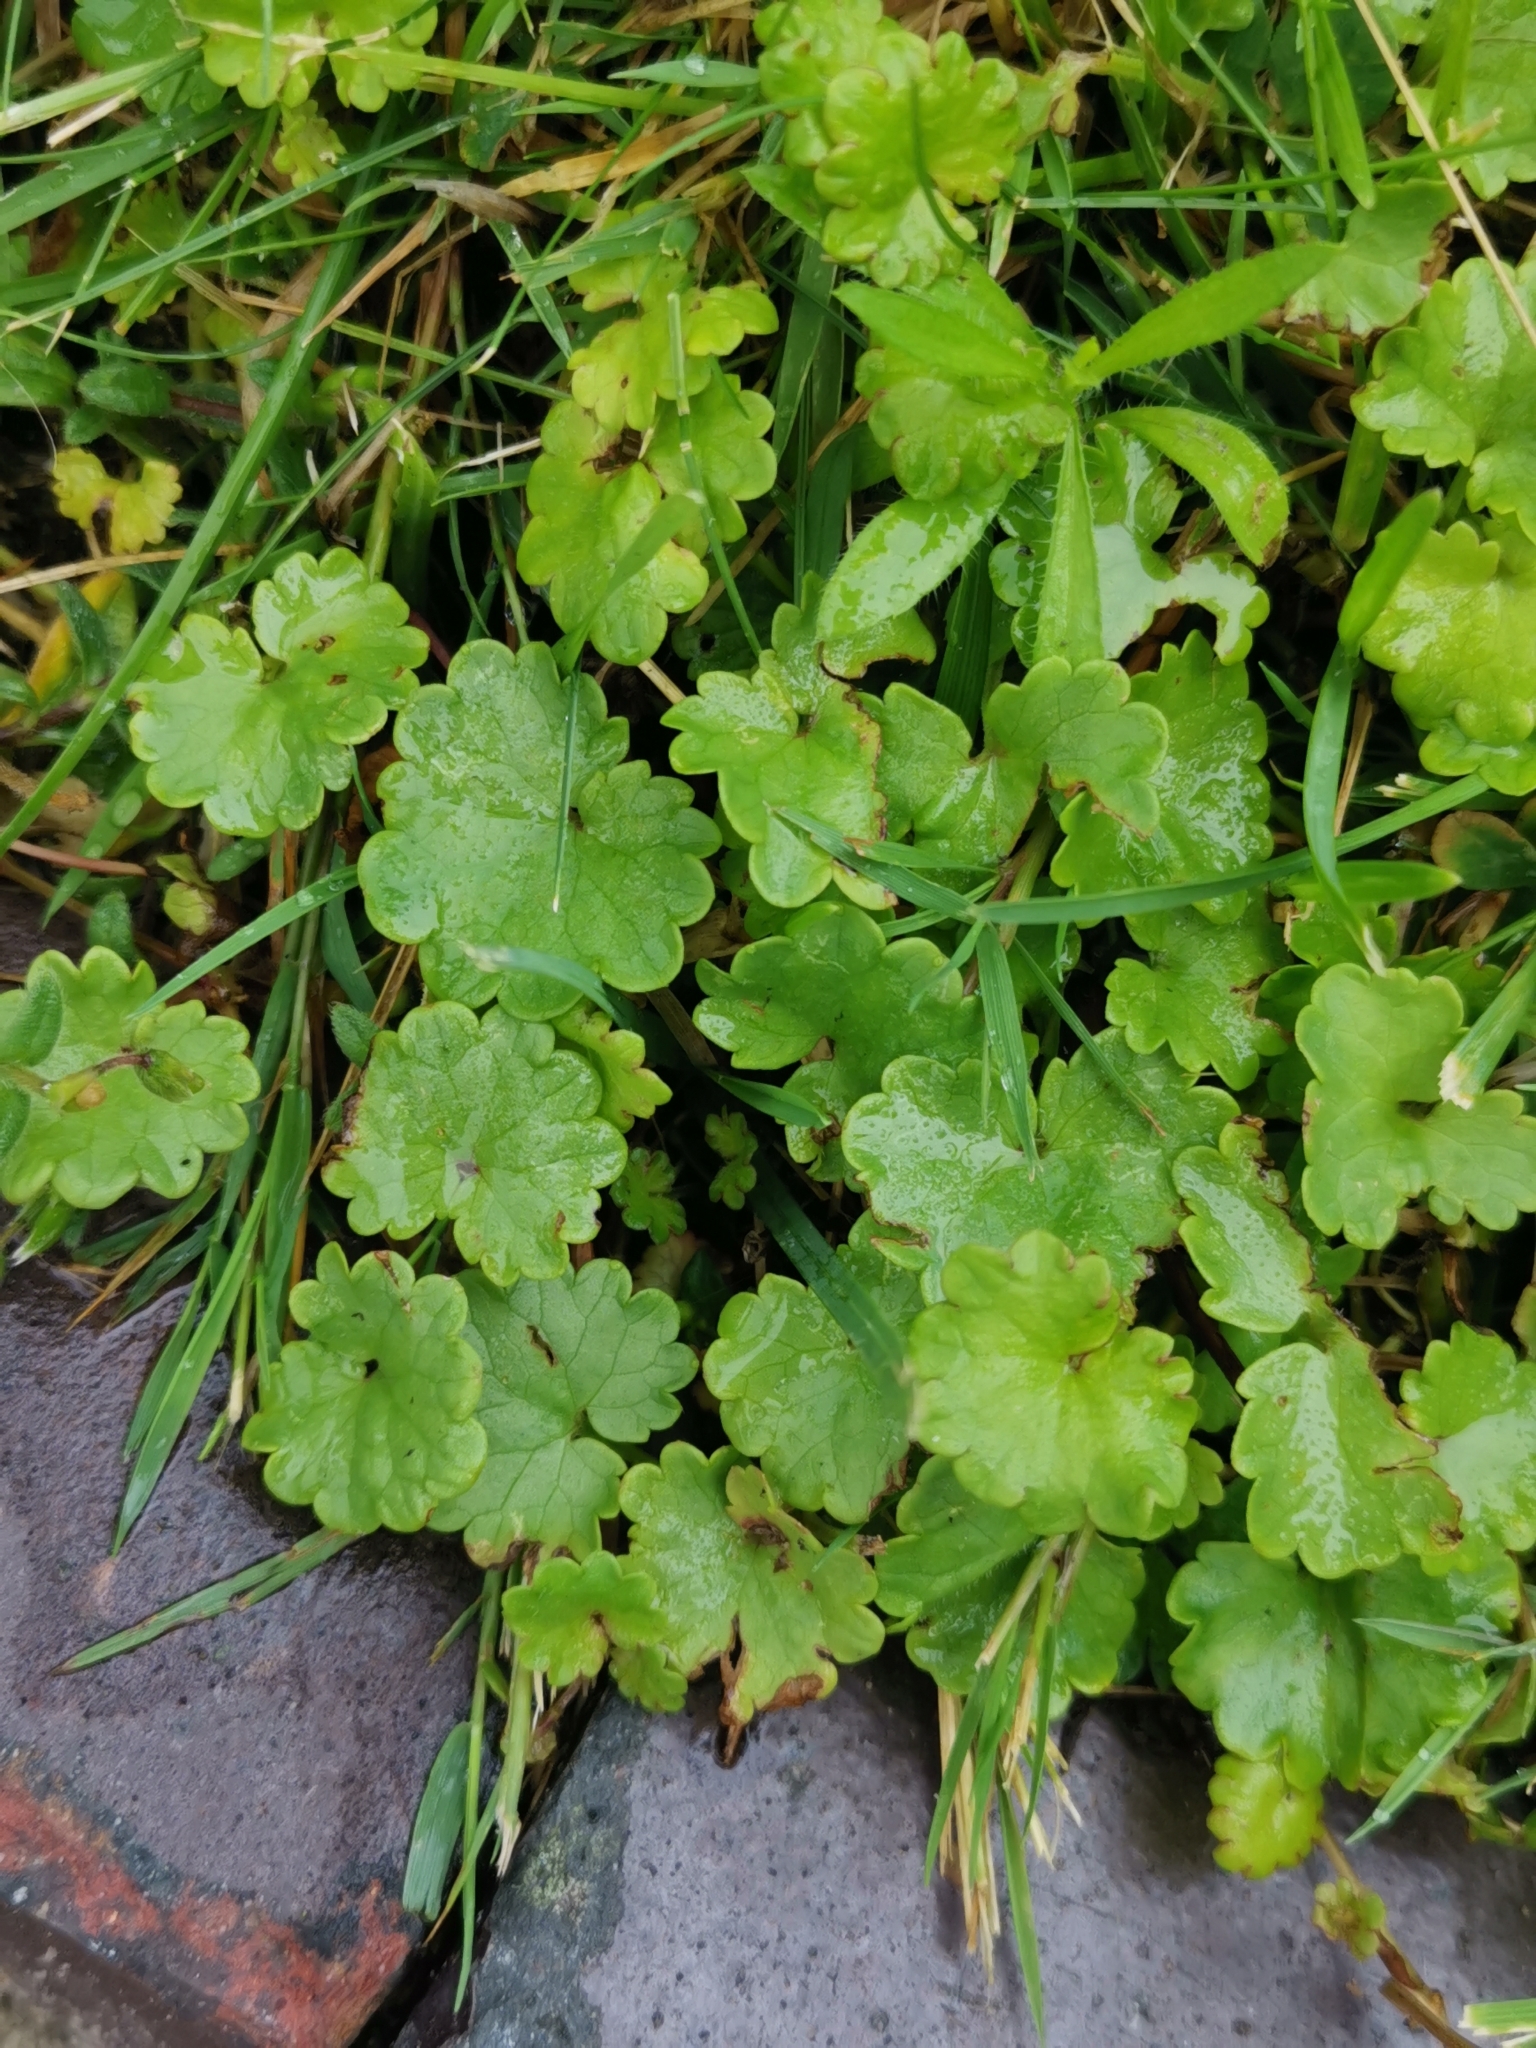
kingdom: Plantae
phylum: Tracheophyta
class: Magnoliopsida
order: Lamiales
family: Lamiaceae
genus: Glechoma
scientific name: Glechoma hederacea
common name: Ground ivy
